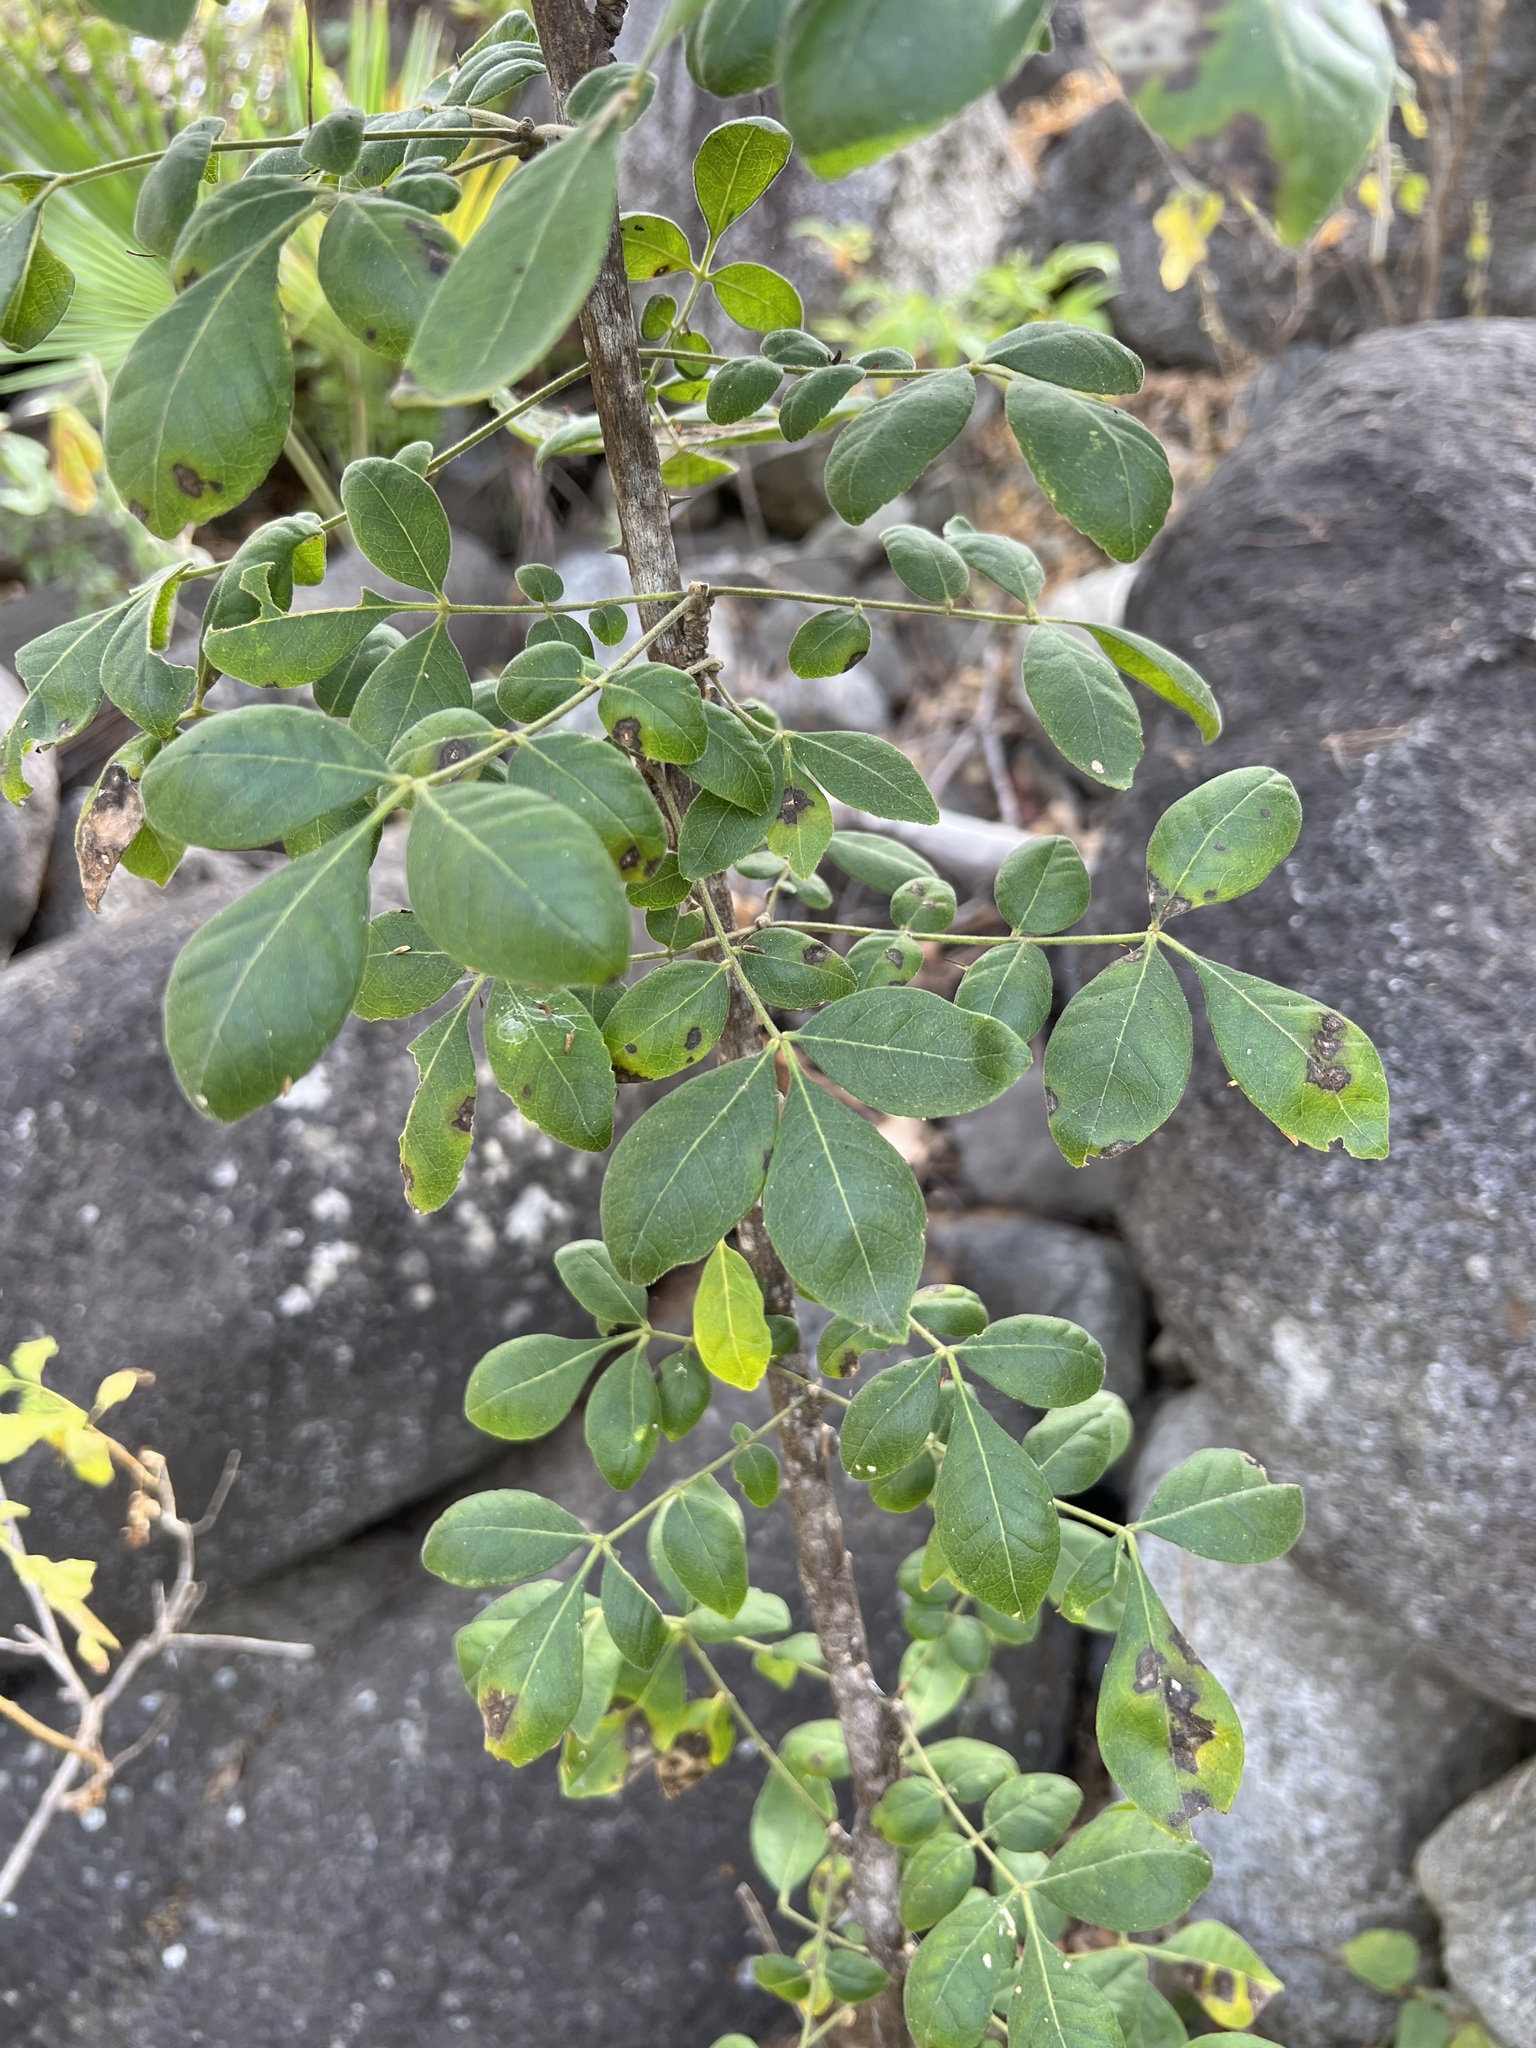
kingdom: Plantae
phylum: Tracheophyta
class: Magnoliopsida
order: Sapindales
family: Rutaceae
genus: Zanthoxylum
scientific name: Zanthoxylum arborescens
